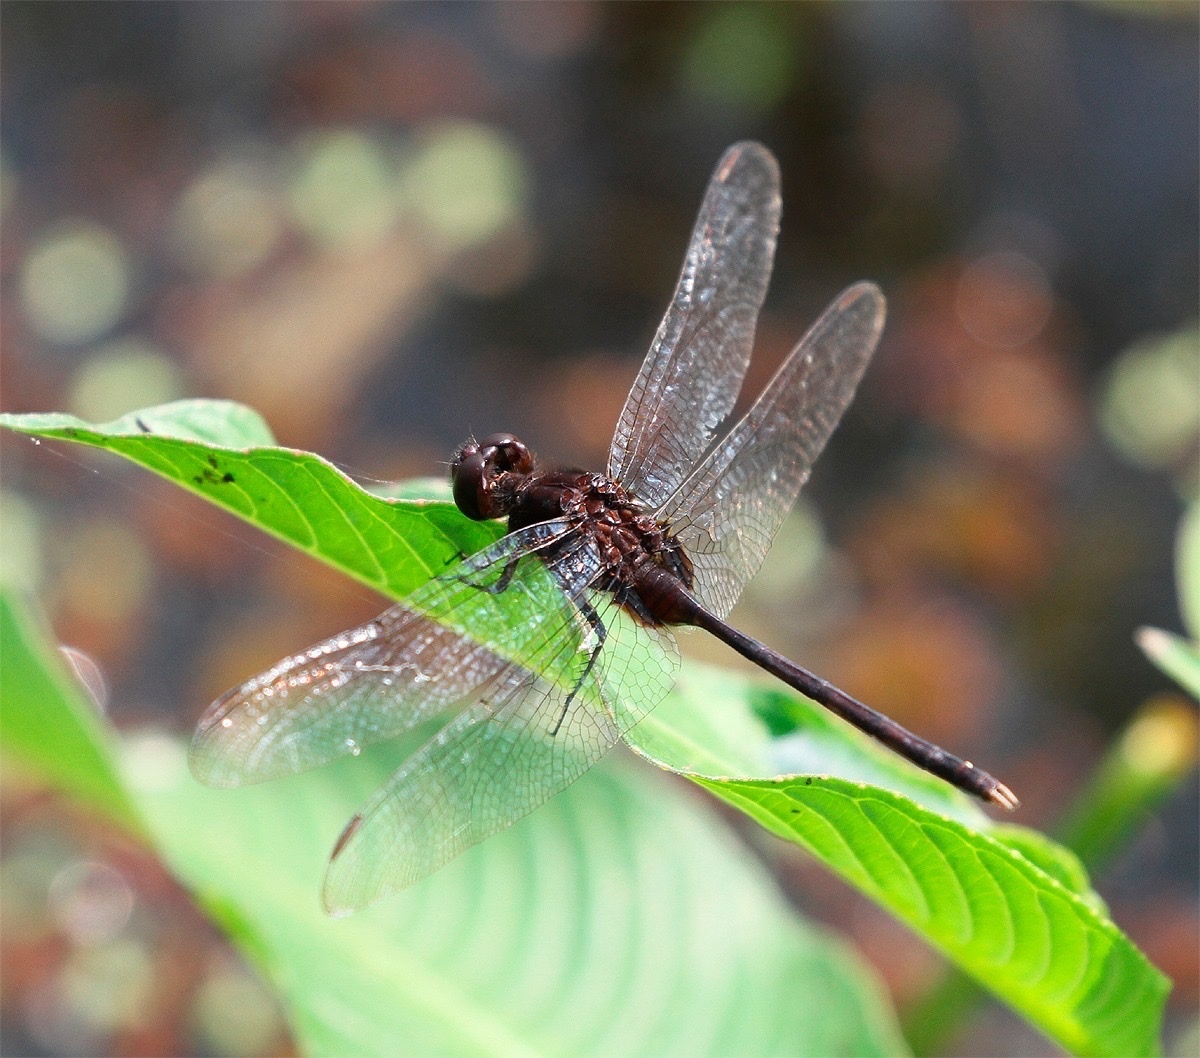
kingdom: Animalia
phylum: Arthropoda
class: Insecta
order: Odonata
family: Libellulidae
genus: Erythemis
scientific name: Erythemis plebeja
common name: Pin-tailed pondhawk
